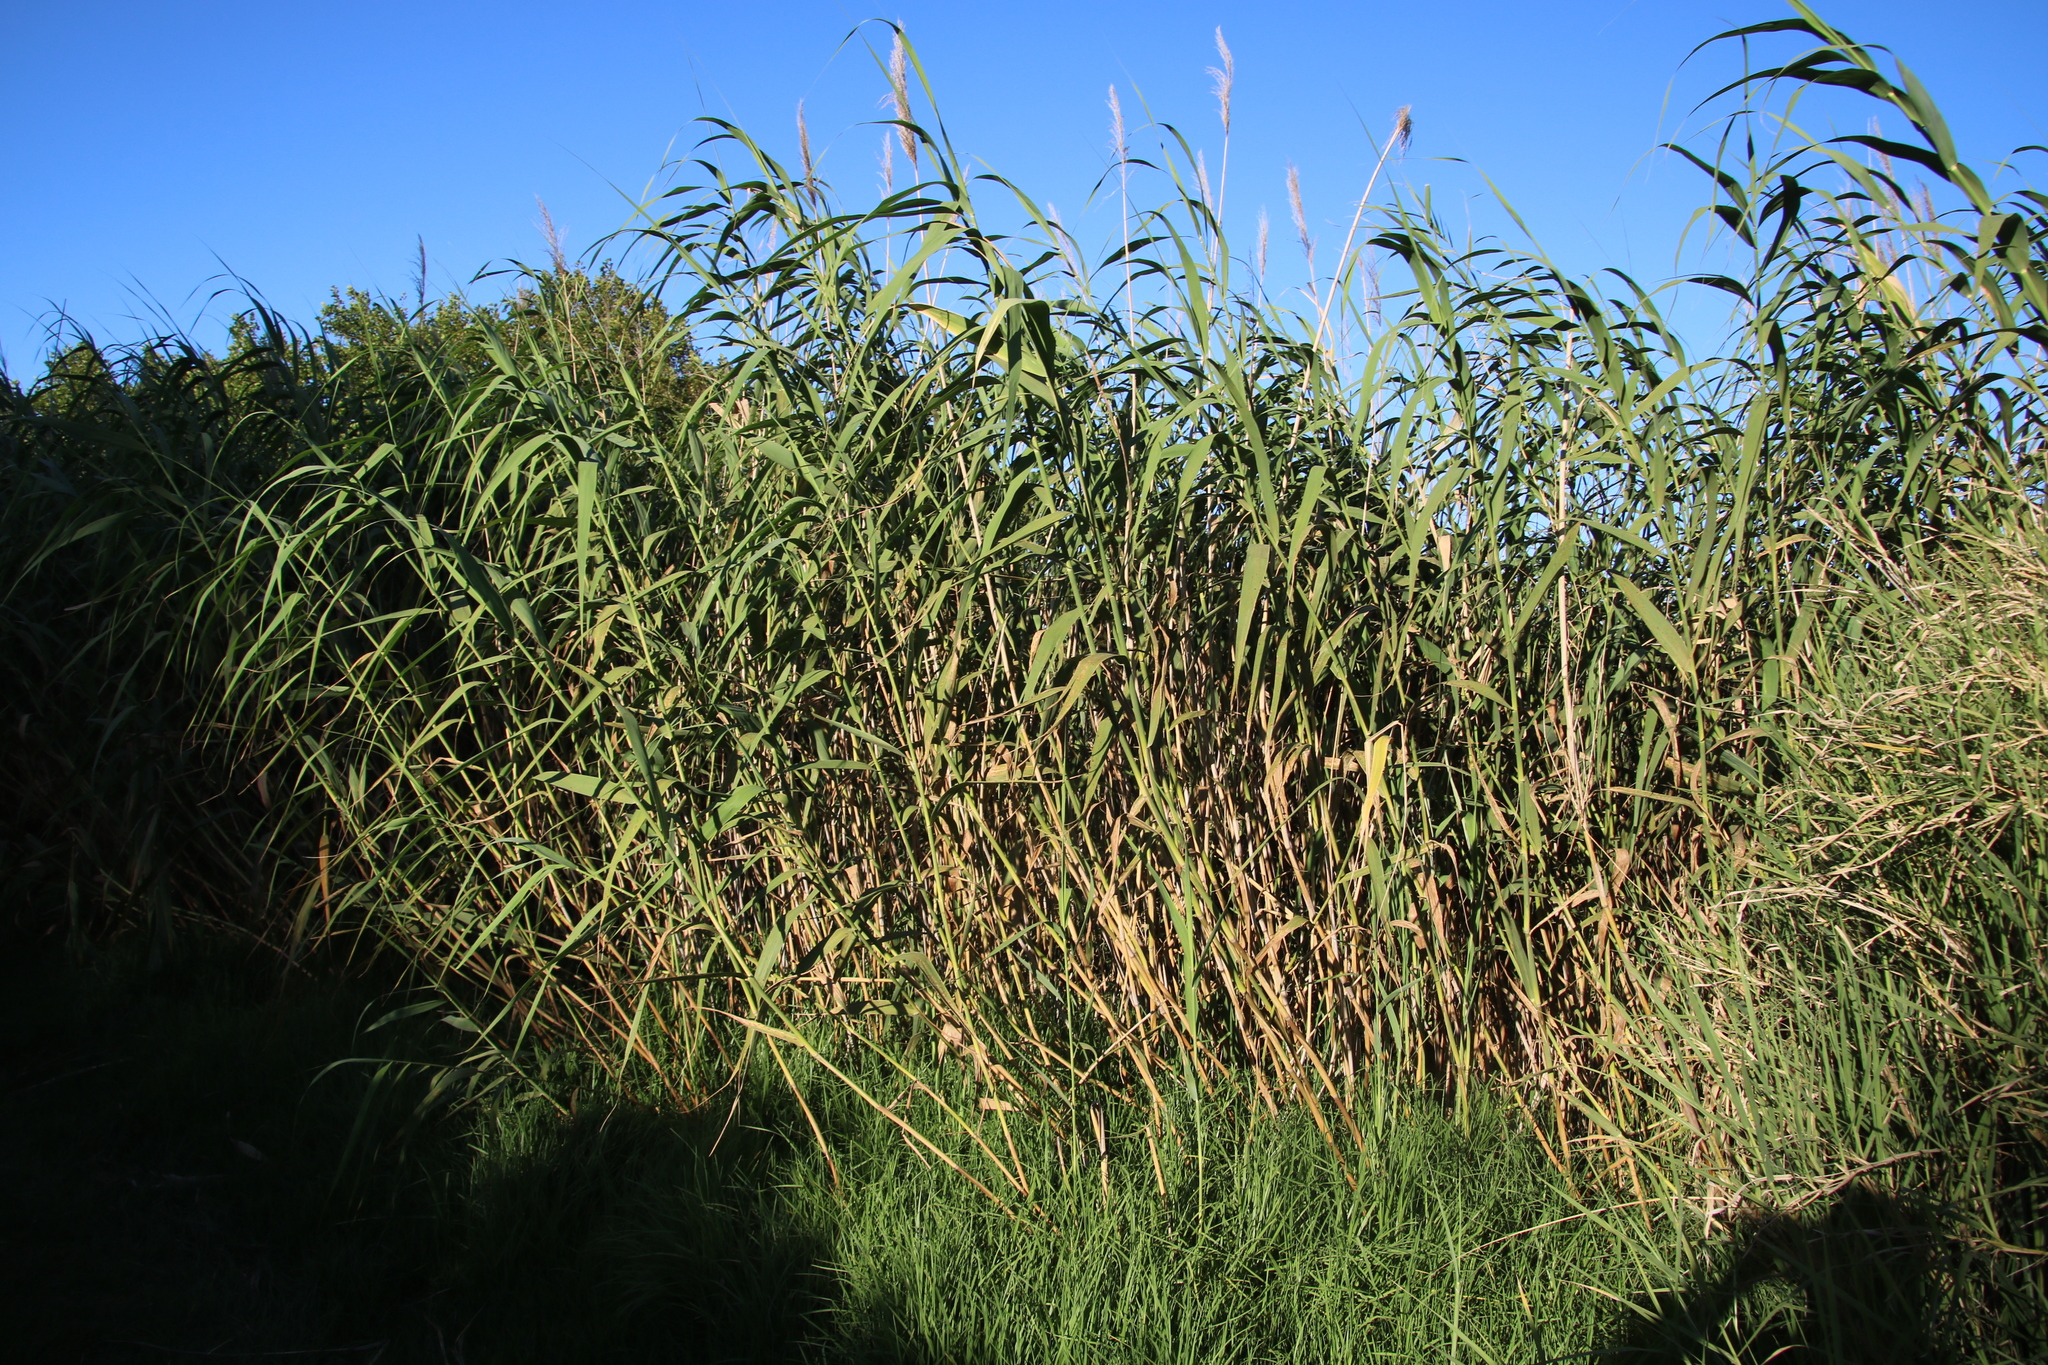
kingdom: Plantae
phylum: Tracheophyta
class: Liliopsida
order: Poales
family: Poaceae
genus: Phragmites
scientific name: Phragmites australis
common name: Common reed
